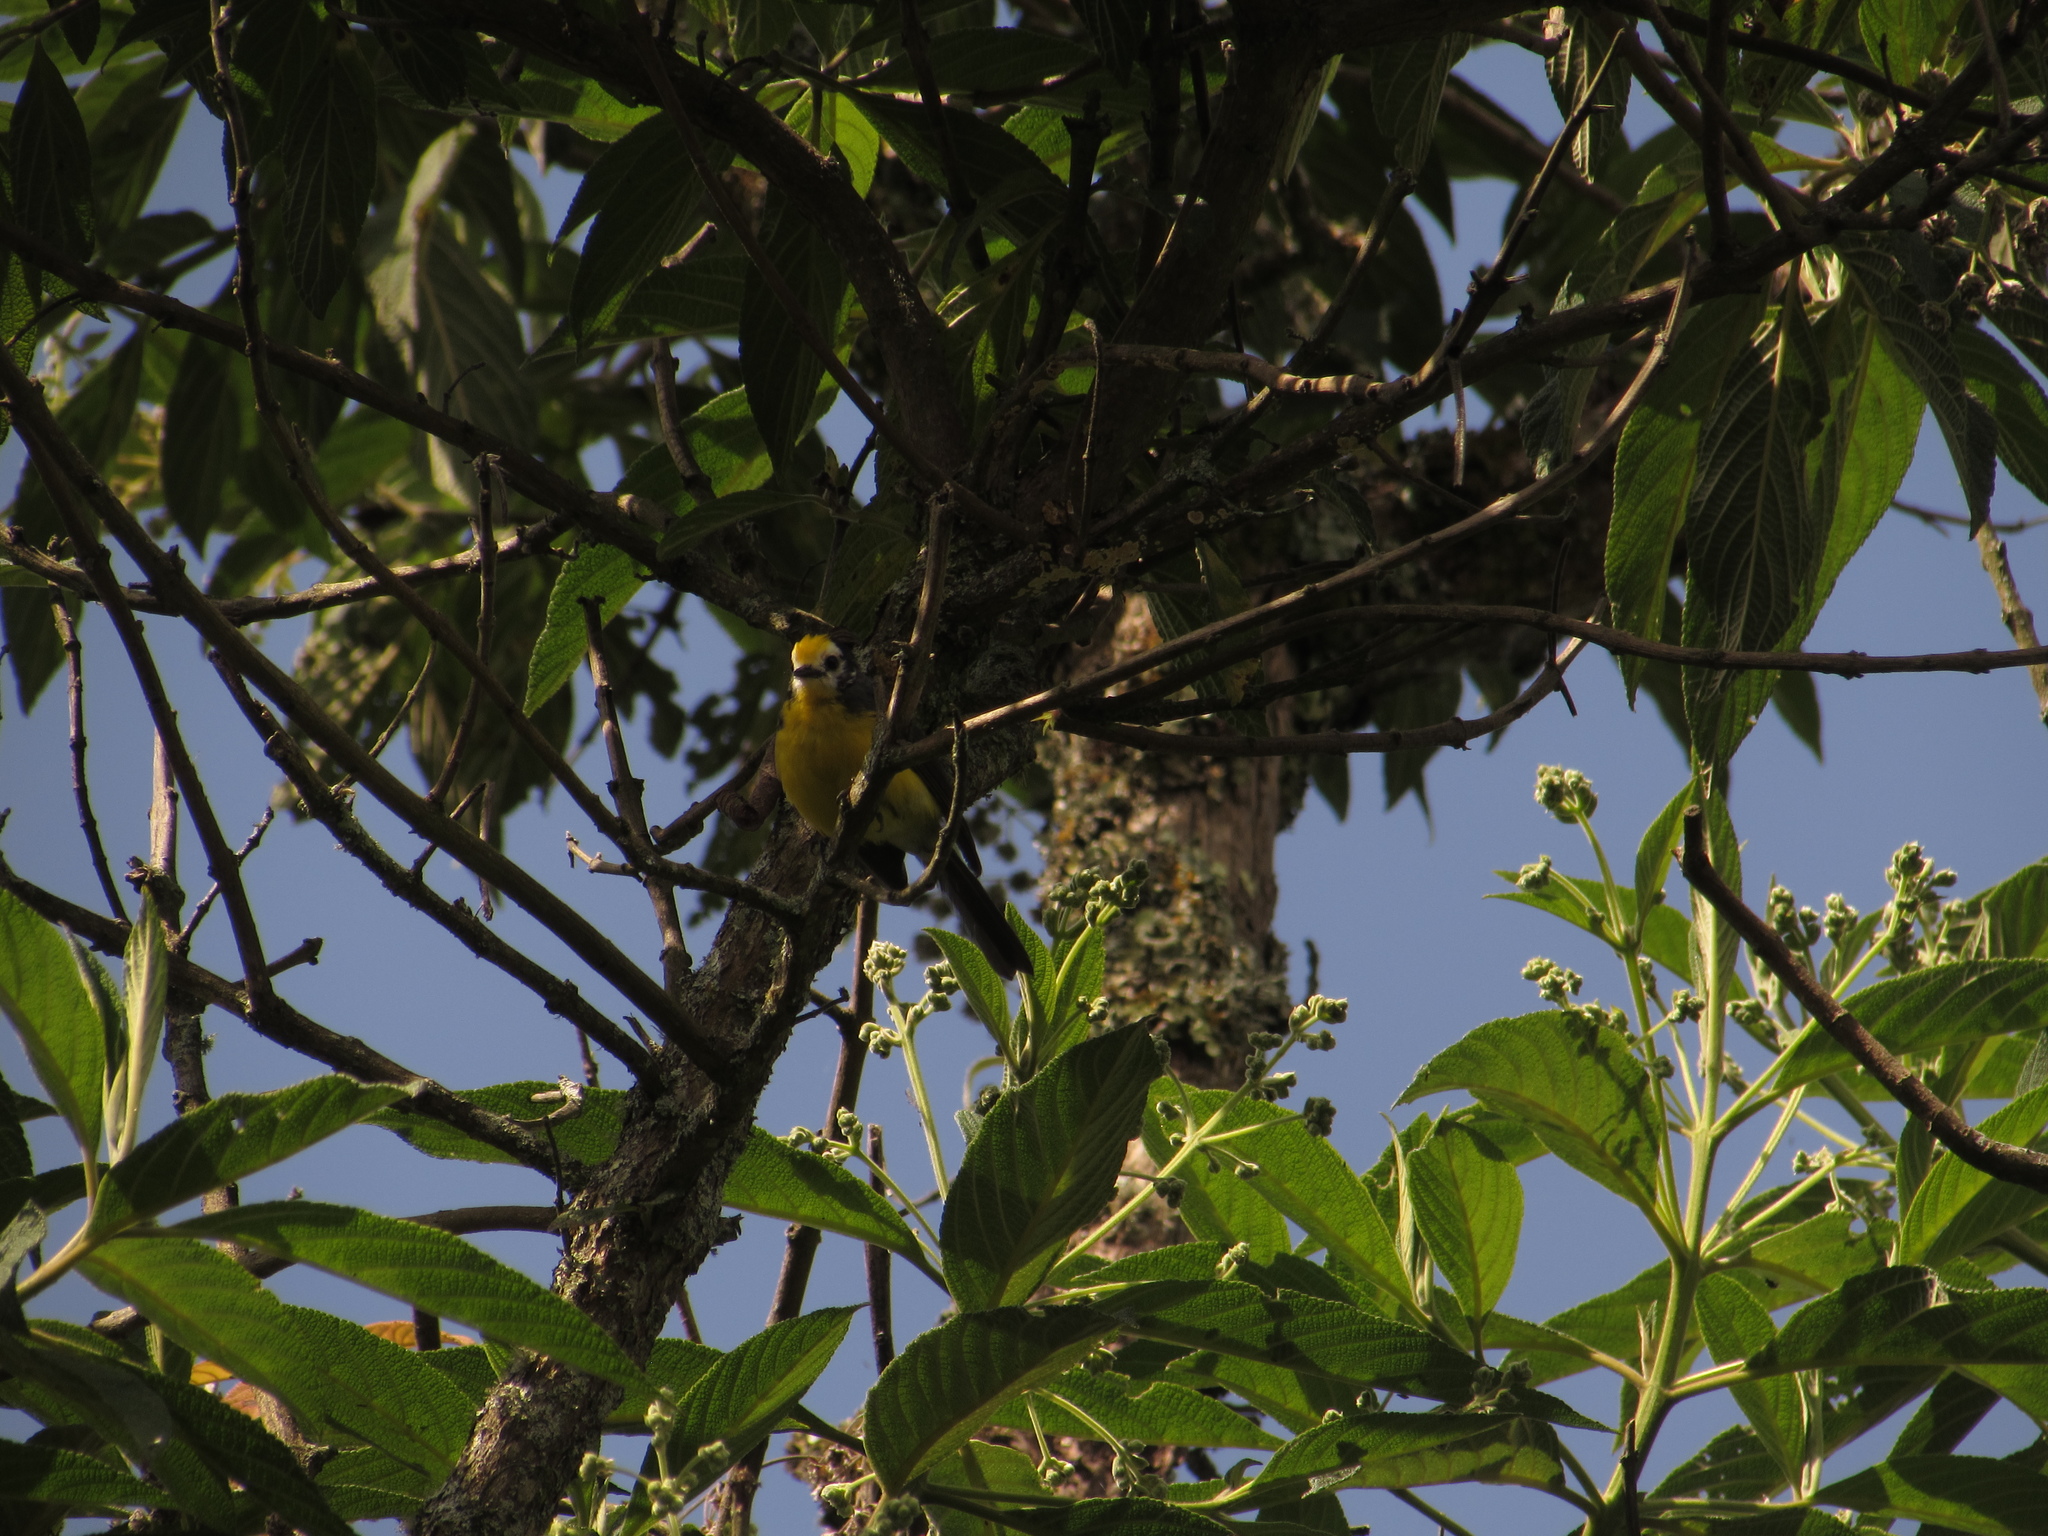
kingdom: Animalia
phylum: Chordata
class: Aves
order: Passeriformes
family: Parulidae
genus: Myioborus
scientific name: Myioborus ornatus
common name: Golden-fronted whitestart
